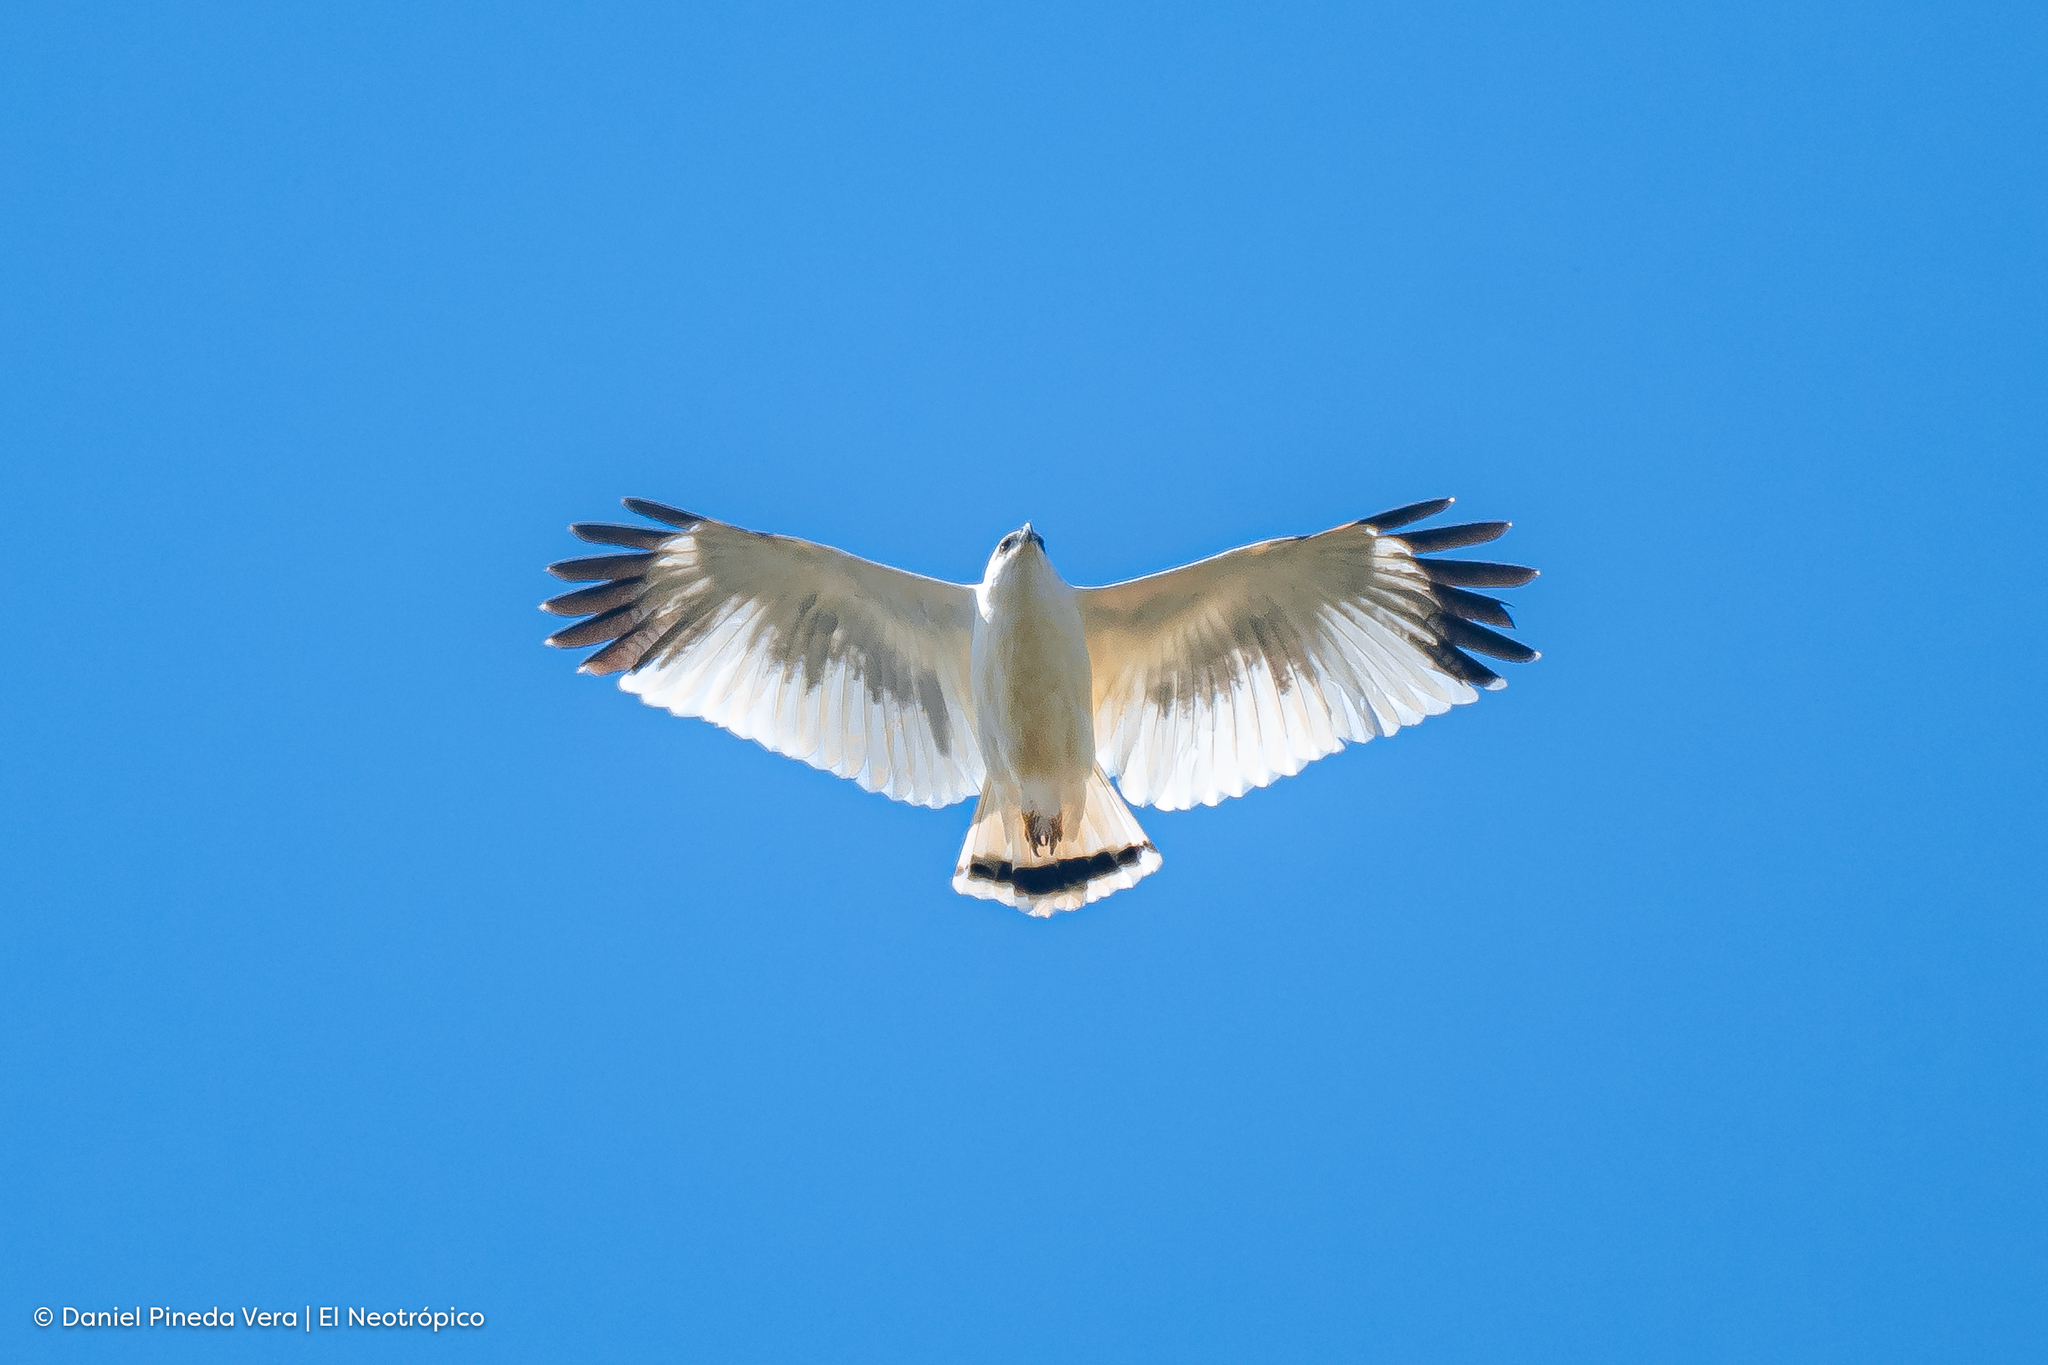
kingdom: Animalia
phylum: Chordata
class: Aves
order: Accipitriformes
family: Accipitridae
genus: Leucopternis
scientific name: Leucopternis albicollis
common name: White hawk
